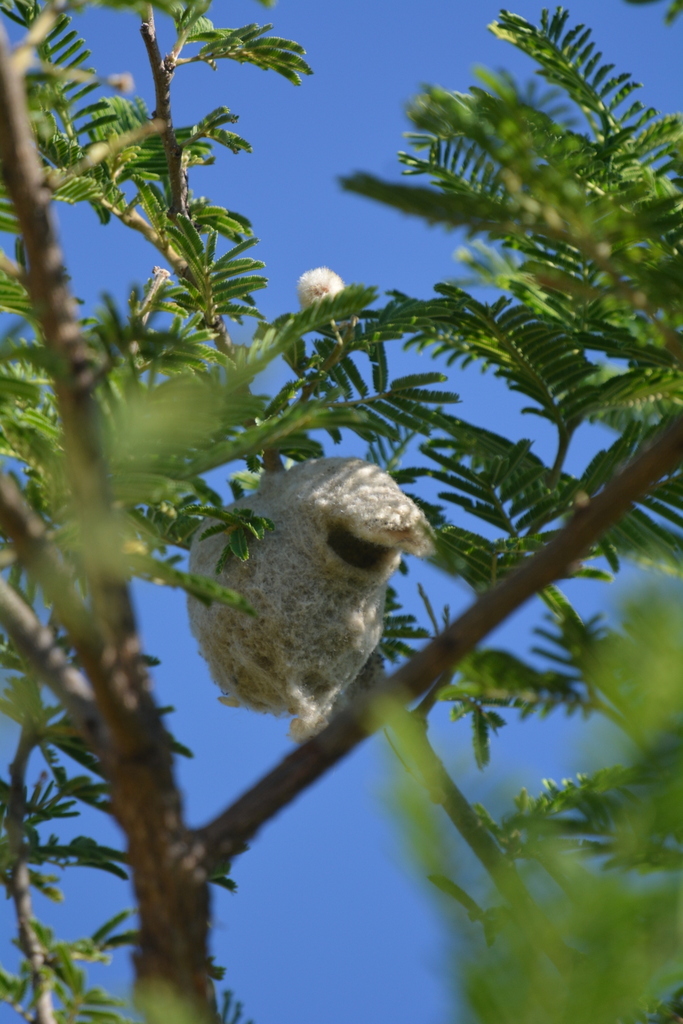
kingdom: Animalia
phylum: Chordata
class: Aves
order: Passeriformes
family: Remizidae
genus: Anthoscopus
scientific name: Anthoscopus caroli
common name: Grey penduline tit
